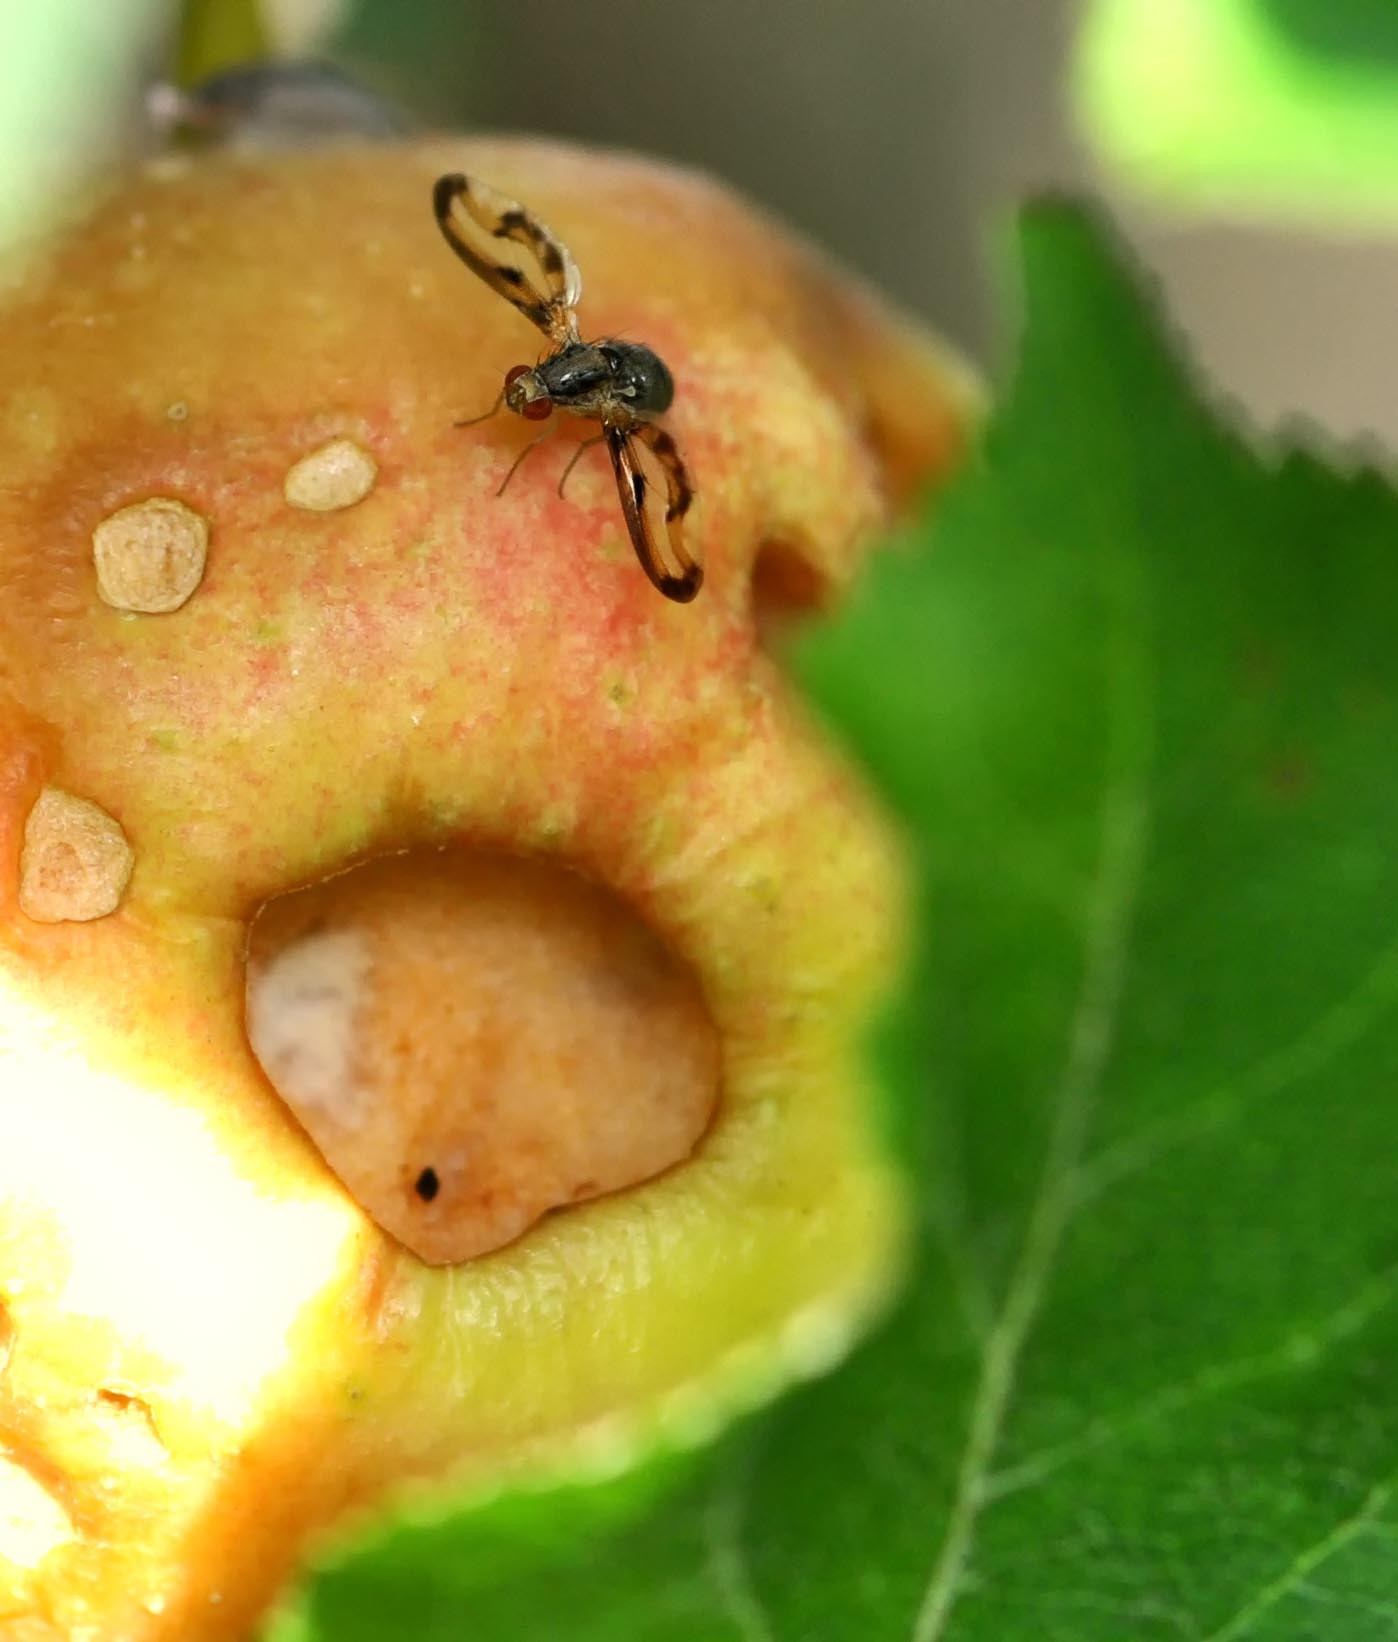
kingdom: Animalia
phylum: Arthropoda
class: Insecta
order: Diptera
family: Pallopteridae
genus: Toxonevra
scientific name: Toxonevra muliebris
